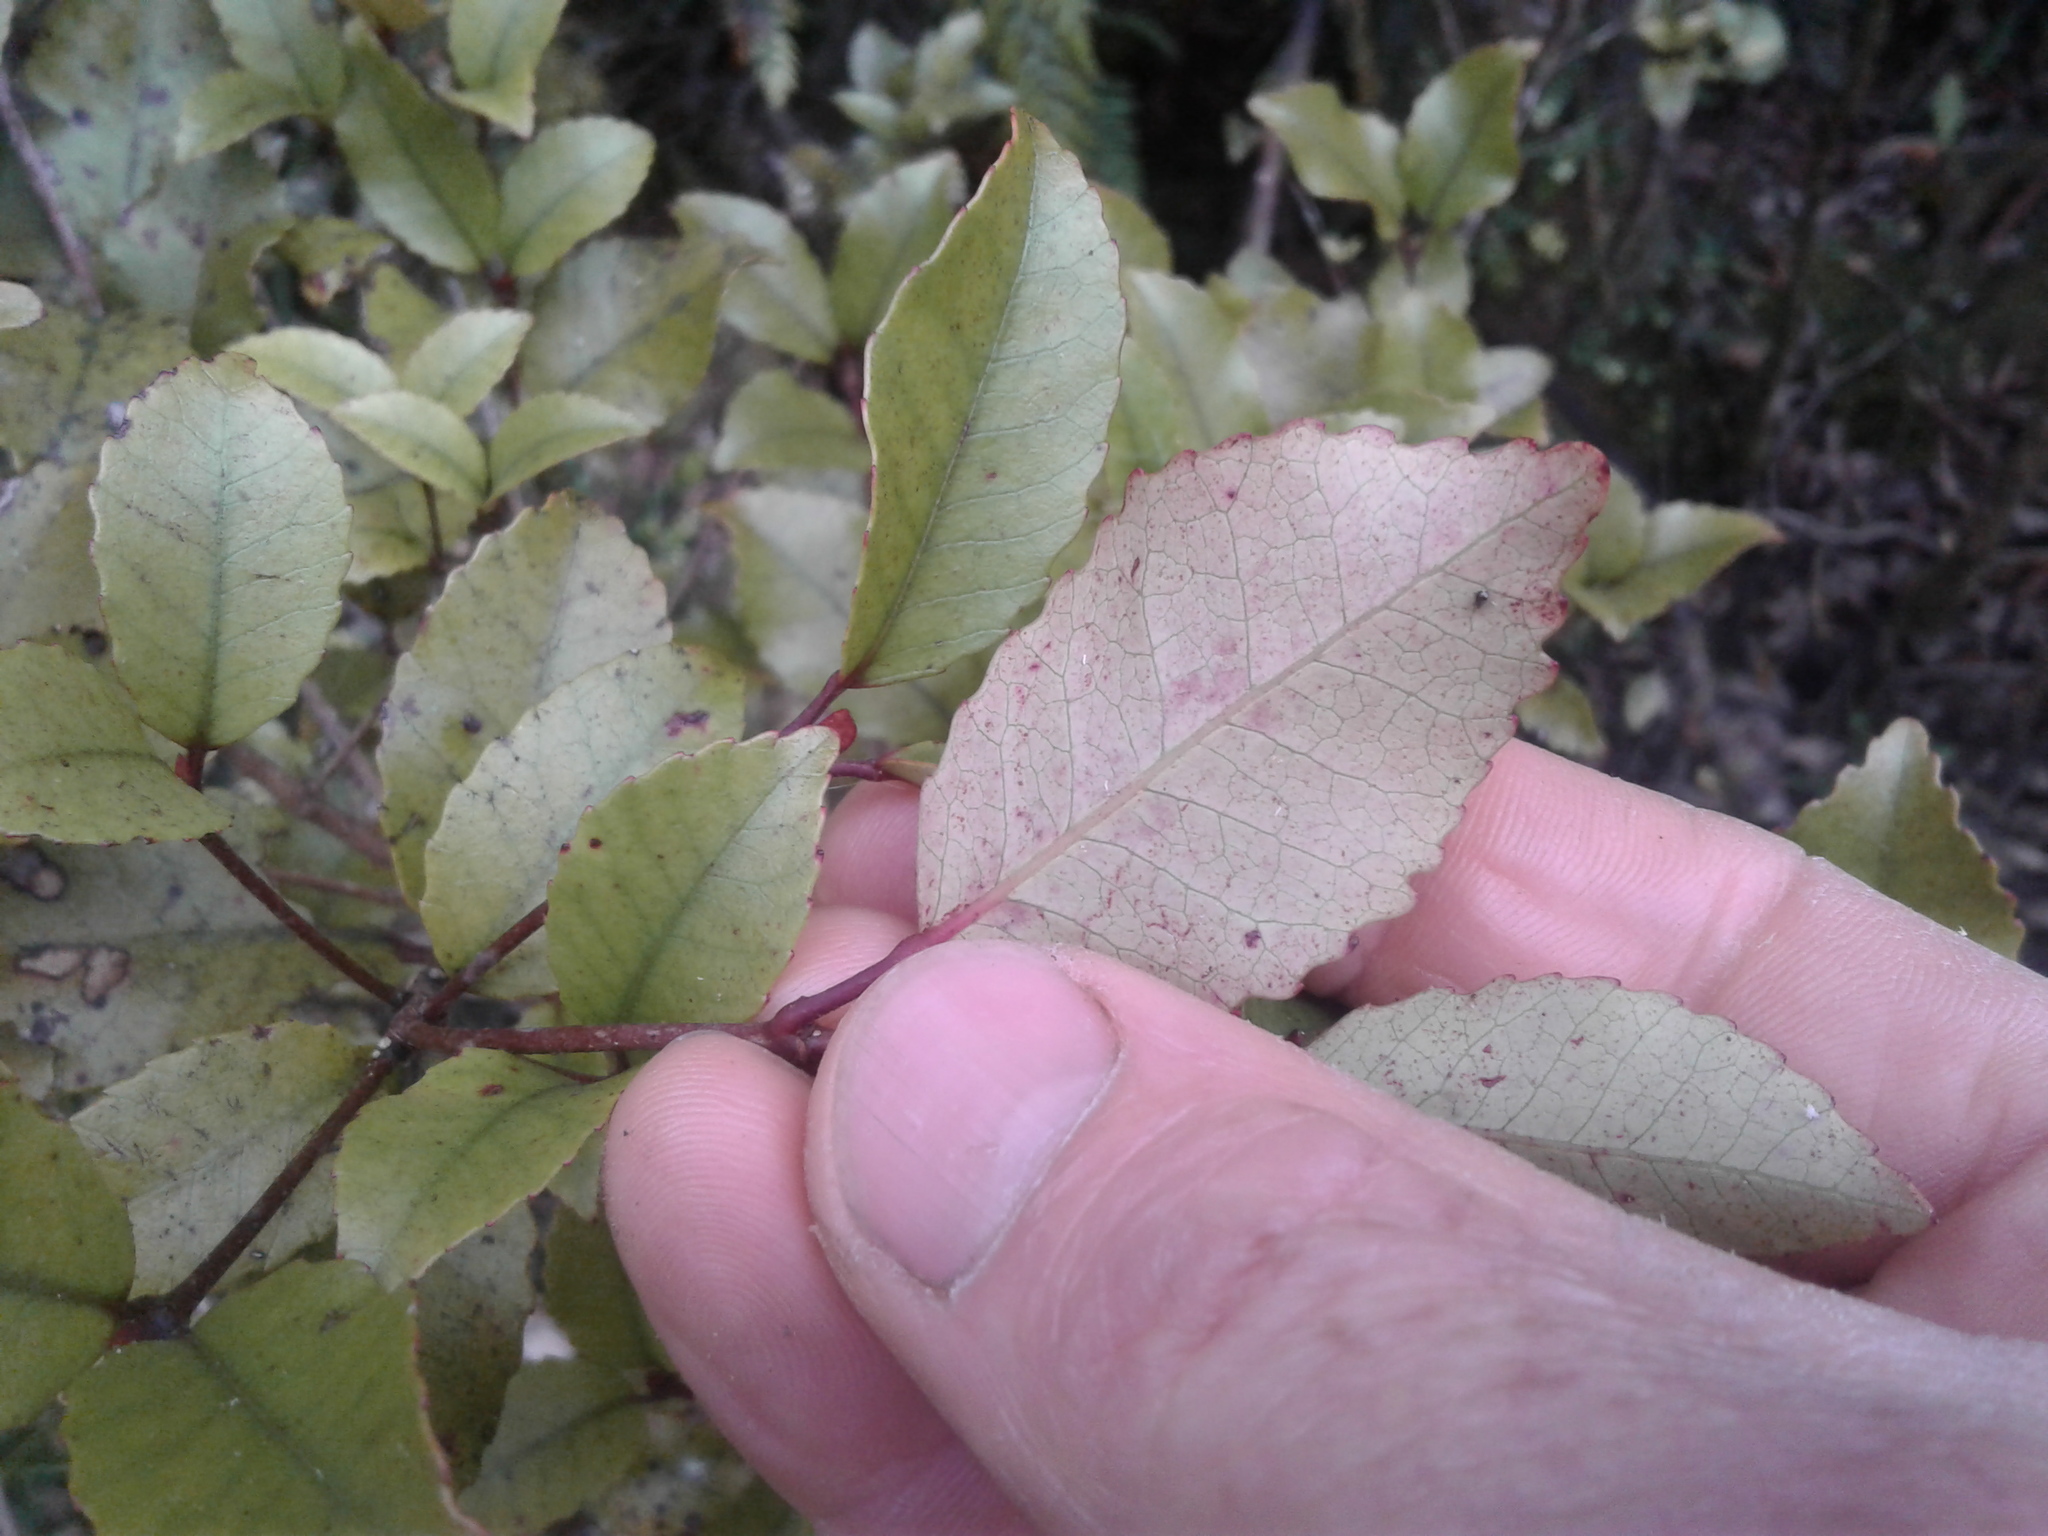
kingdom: Plantae
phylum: Tracheophyta
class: Magnoliopsida
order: Oxalidales
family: Cunoniaceae
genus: Pterophylla
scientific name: Pterophylla racemosa
